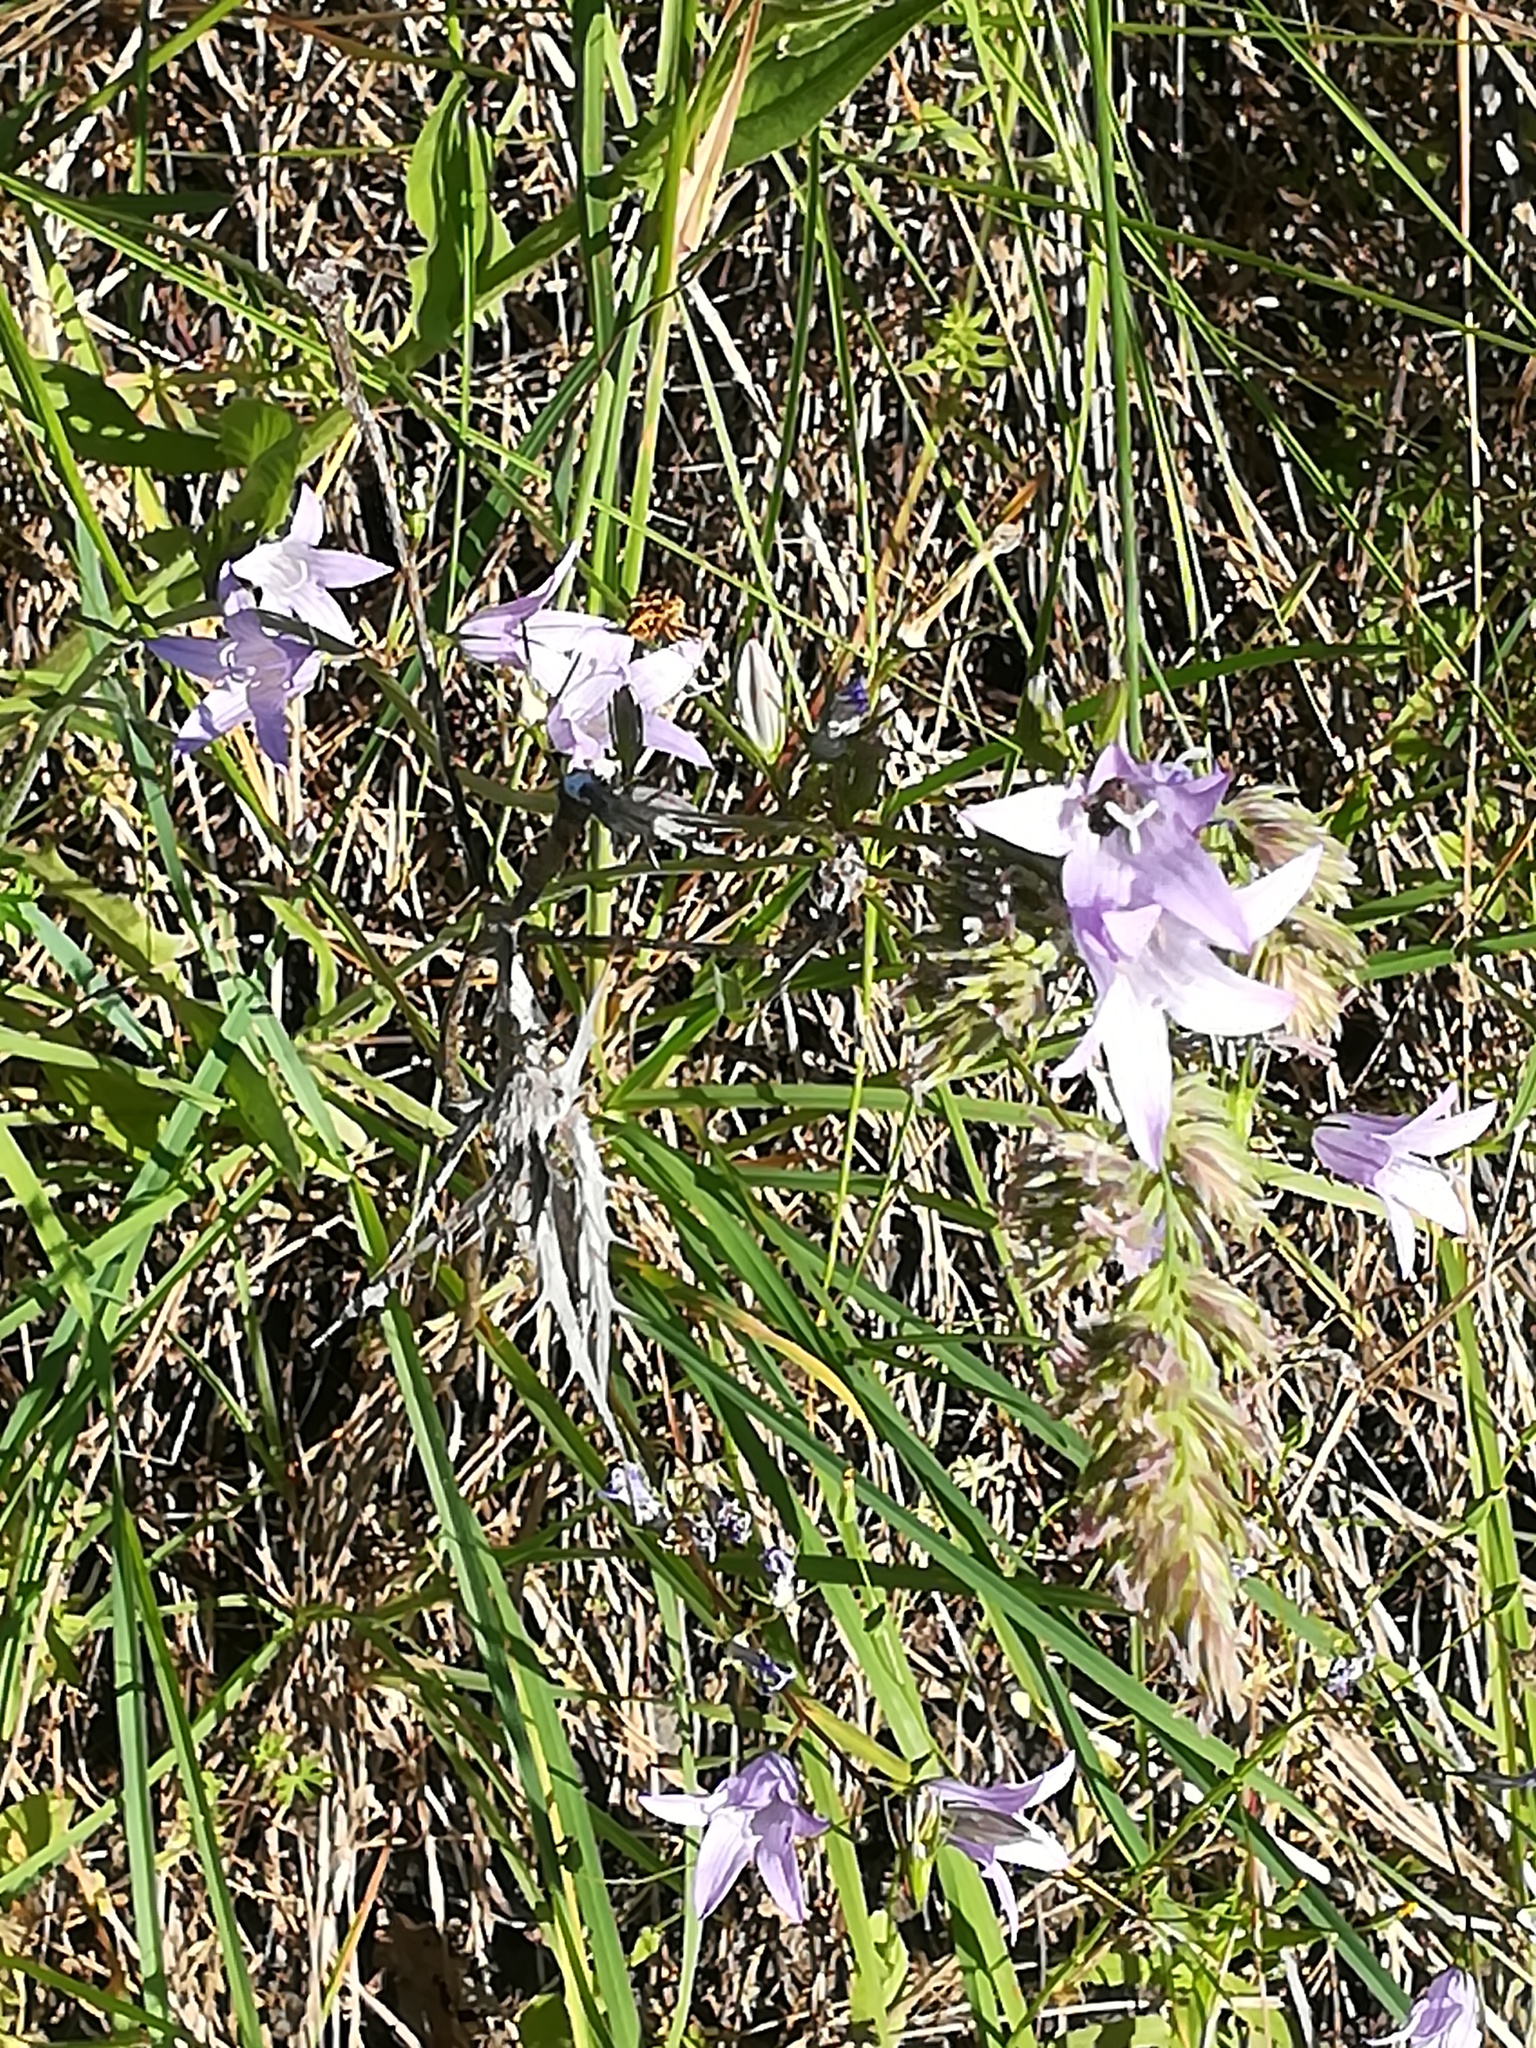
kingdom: Plantae
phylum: Tracheophyta
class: Magnoliopsida
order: Asterales
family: Campanulaceae
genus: Campanula
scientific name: Campanula rapunculus
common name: Rampion bellflower
